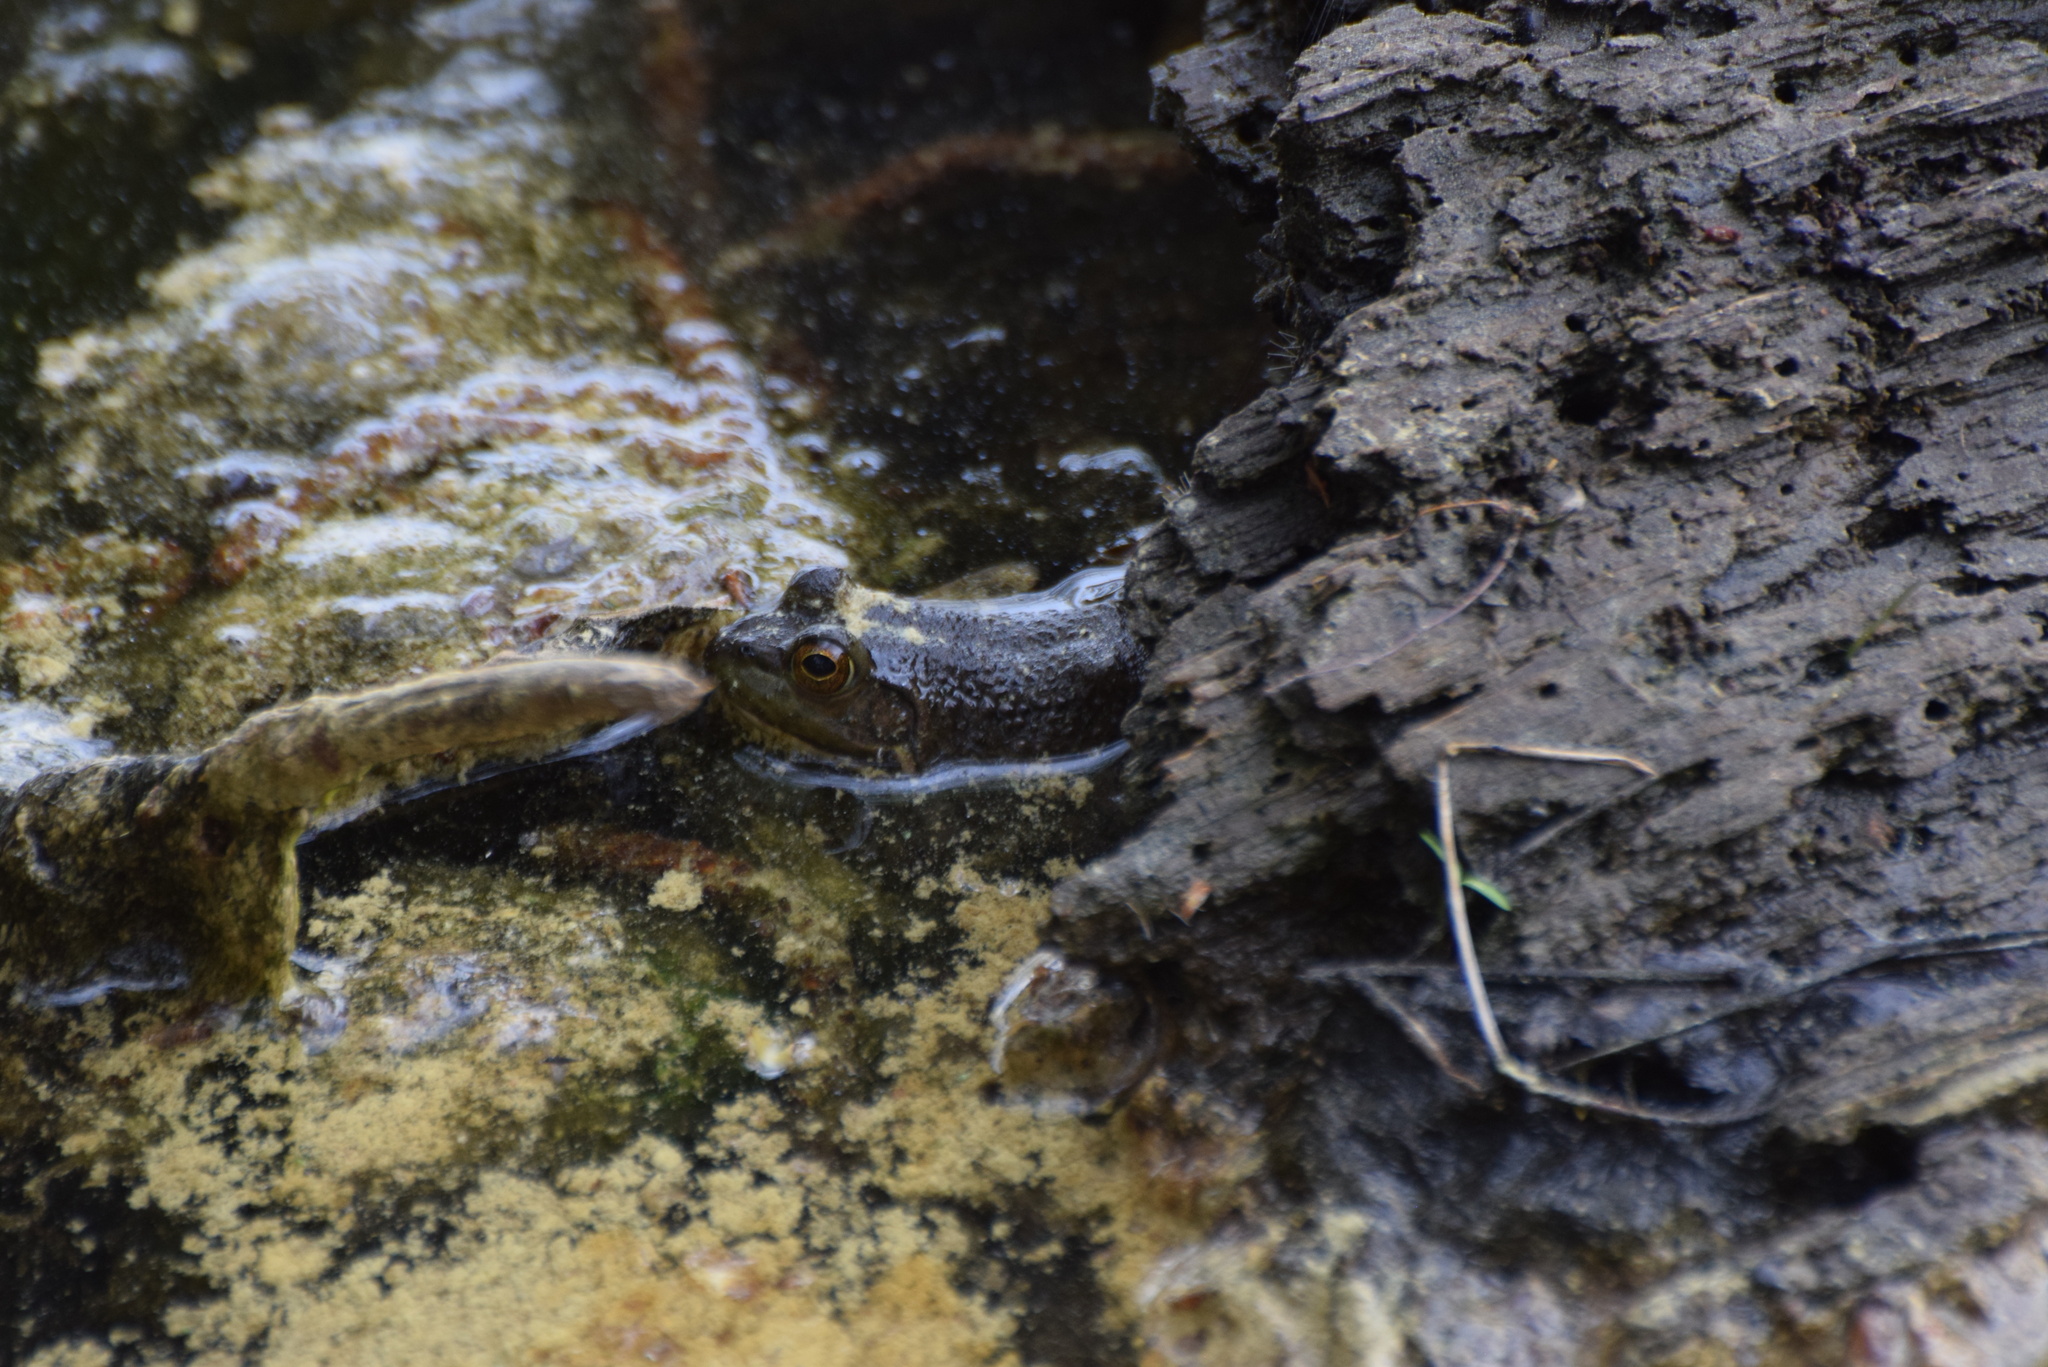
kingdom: Animalia
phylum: Chordata
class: Amphibia
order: Anura
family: Ranidae
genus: Lithobates
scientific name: Lithobates catesbeianus
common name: American bullfrog
